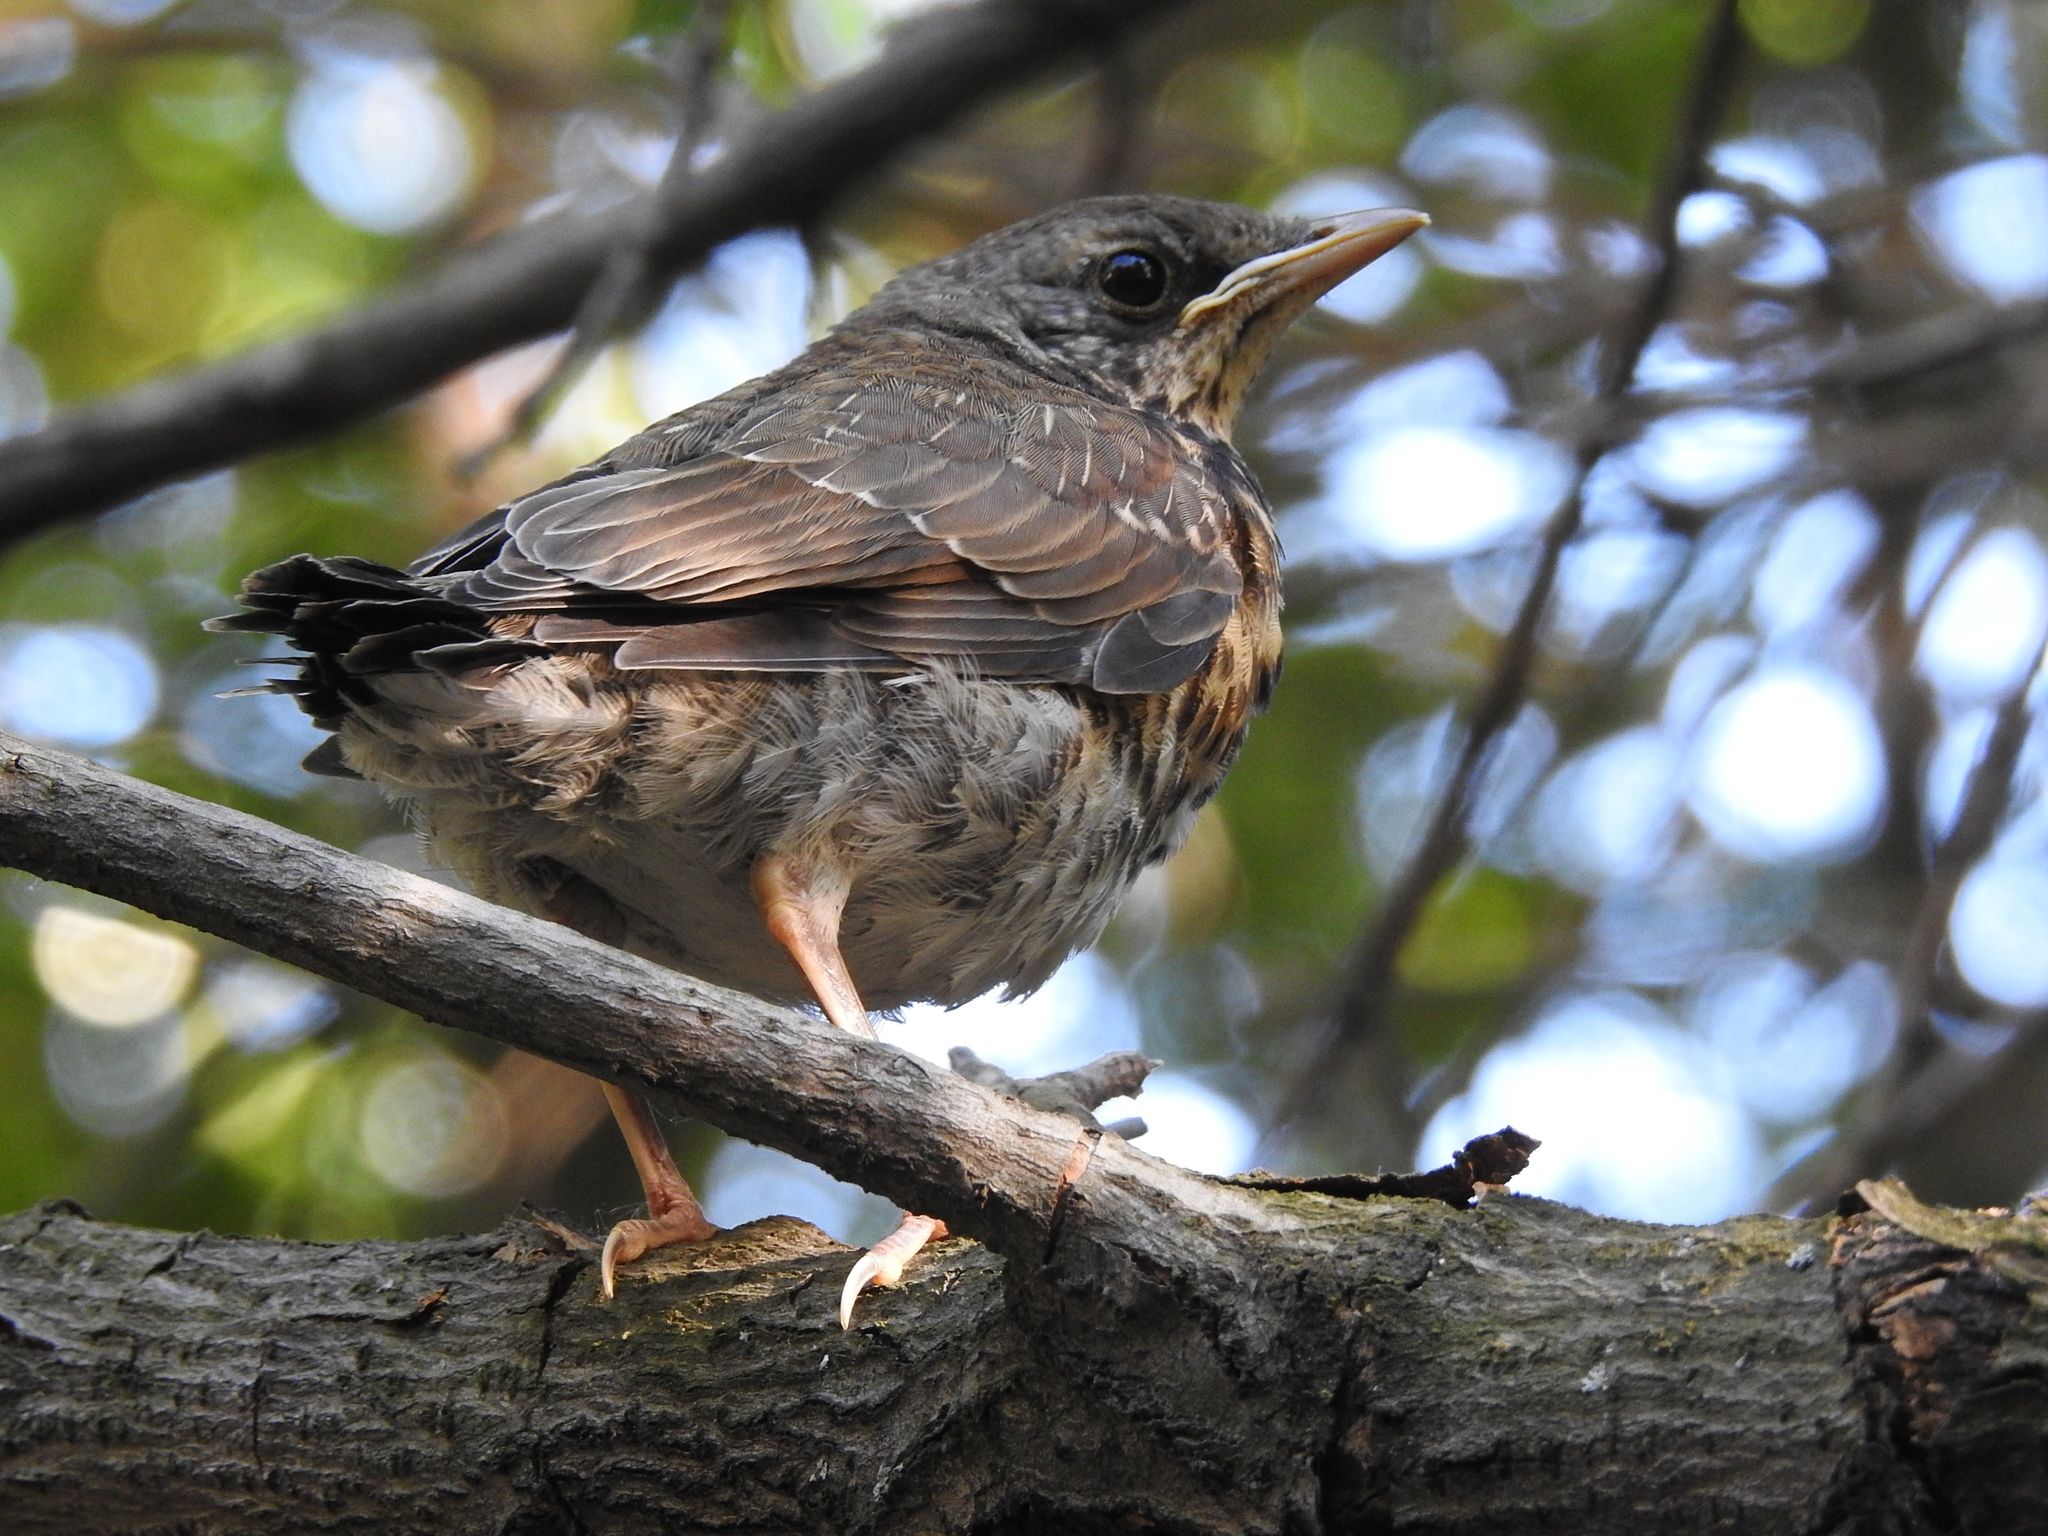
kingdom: Animalia
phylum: Chordata
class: Aves
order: Passeriformes
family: Turdidae
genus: Turdus
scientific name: Turdus pilaris
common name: Fieldfare
